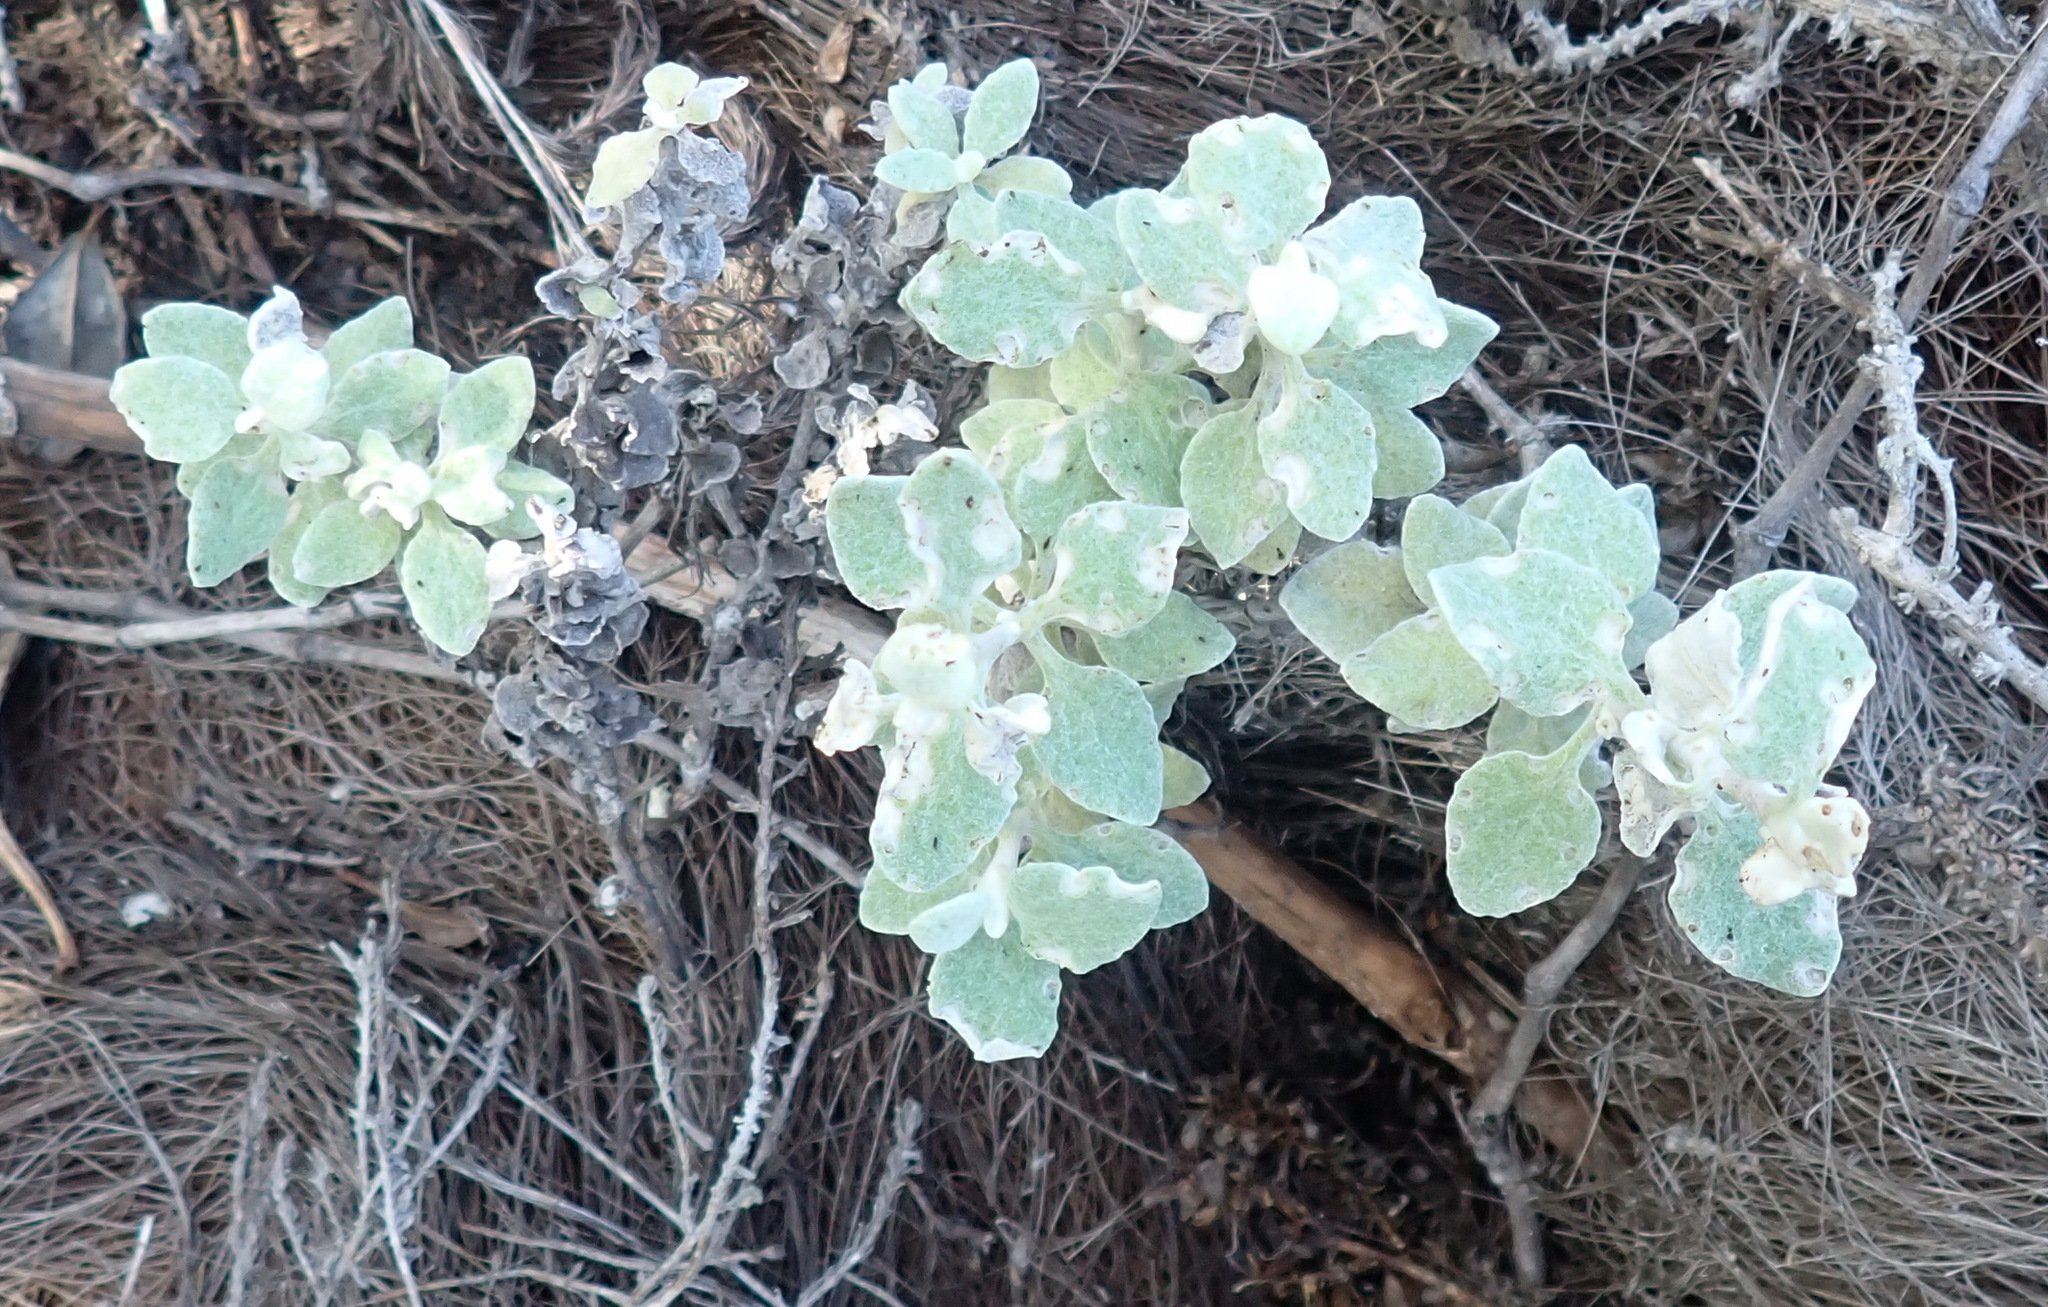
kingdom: Plantae
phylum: Tracheophyta
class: Magnoliopsida
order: Asterales
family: Asteraceae
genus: Helichrysum
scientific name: Helichrysum petiolare
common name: Licorice-plant
